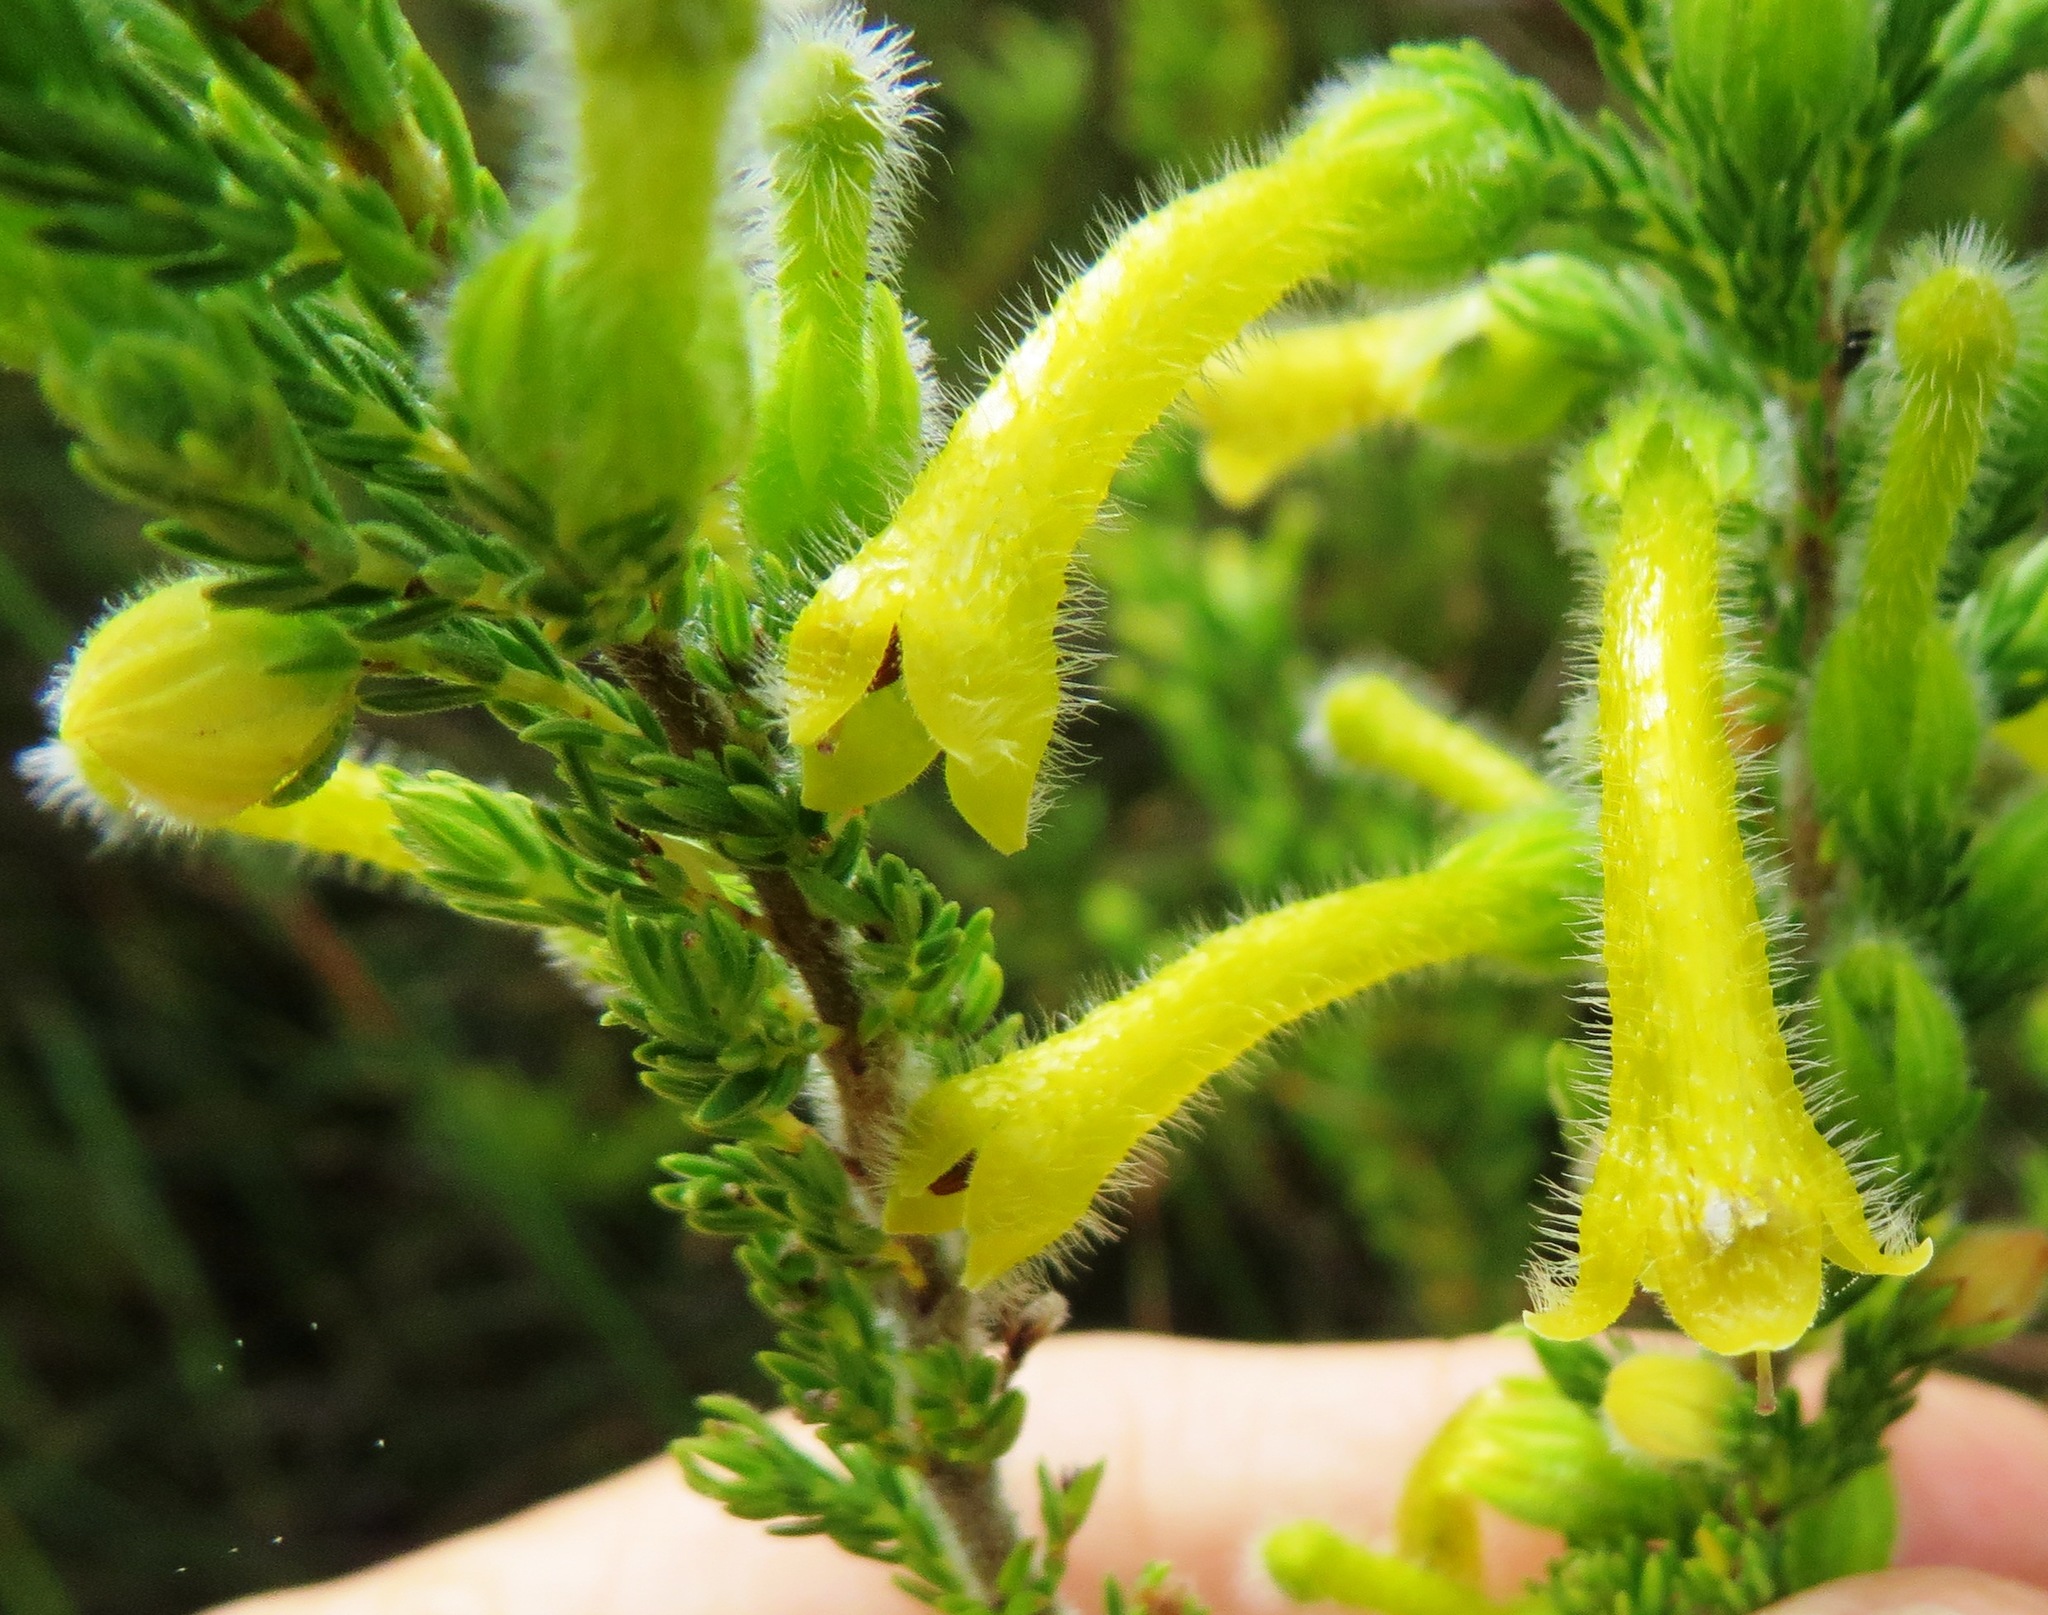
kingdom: Plantae
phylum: Tracheophyta
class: Magnoliopsida
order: Ericales
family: Ericaceae
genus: Erica
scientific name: Erica stagnalis
